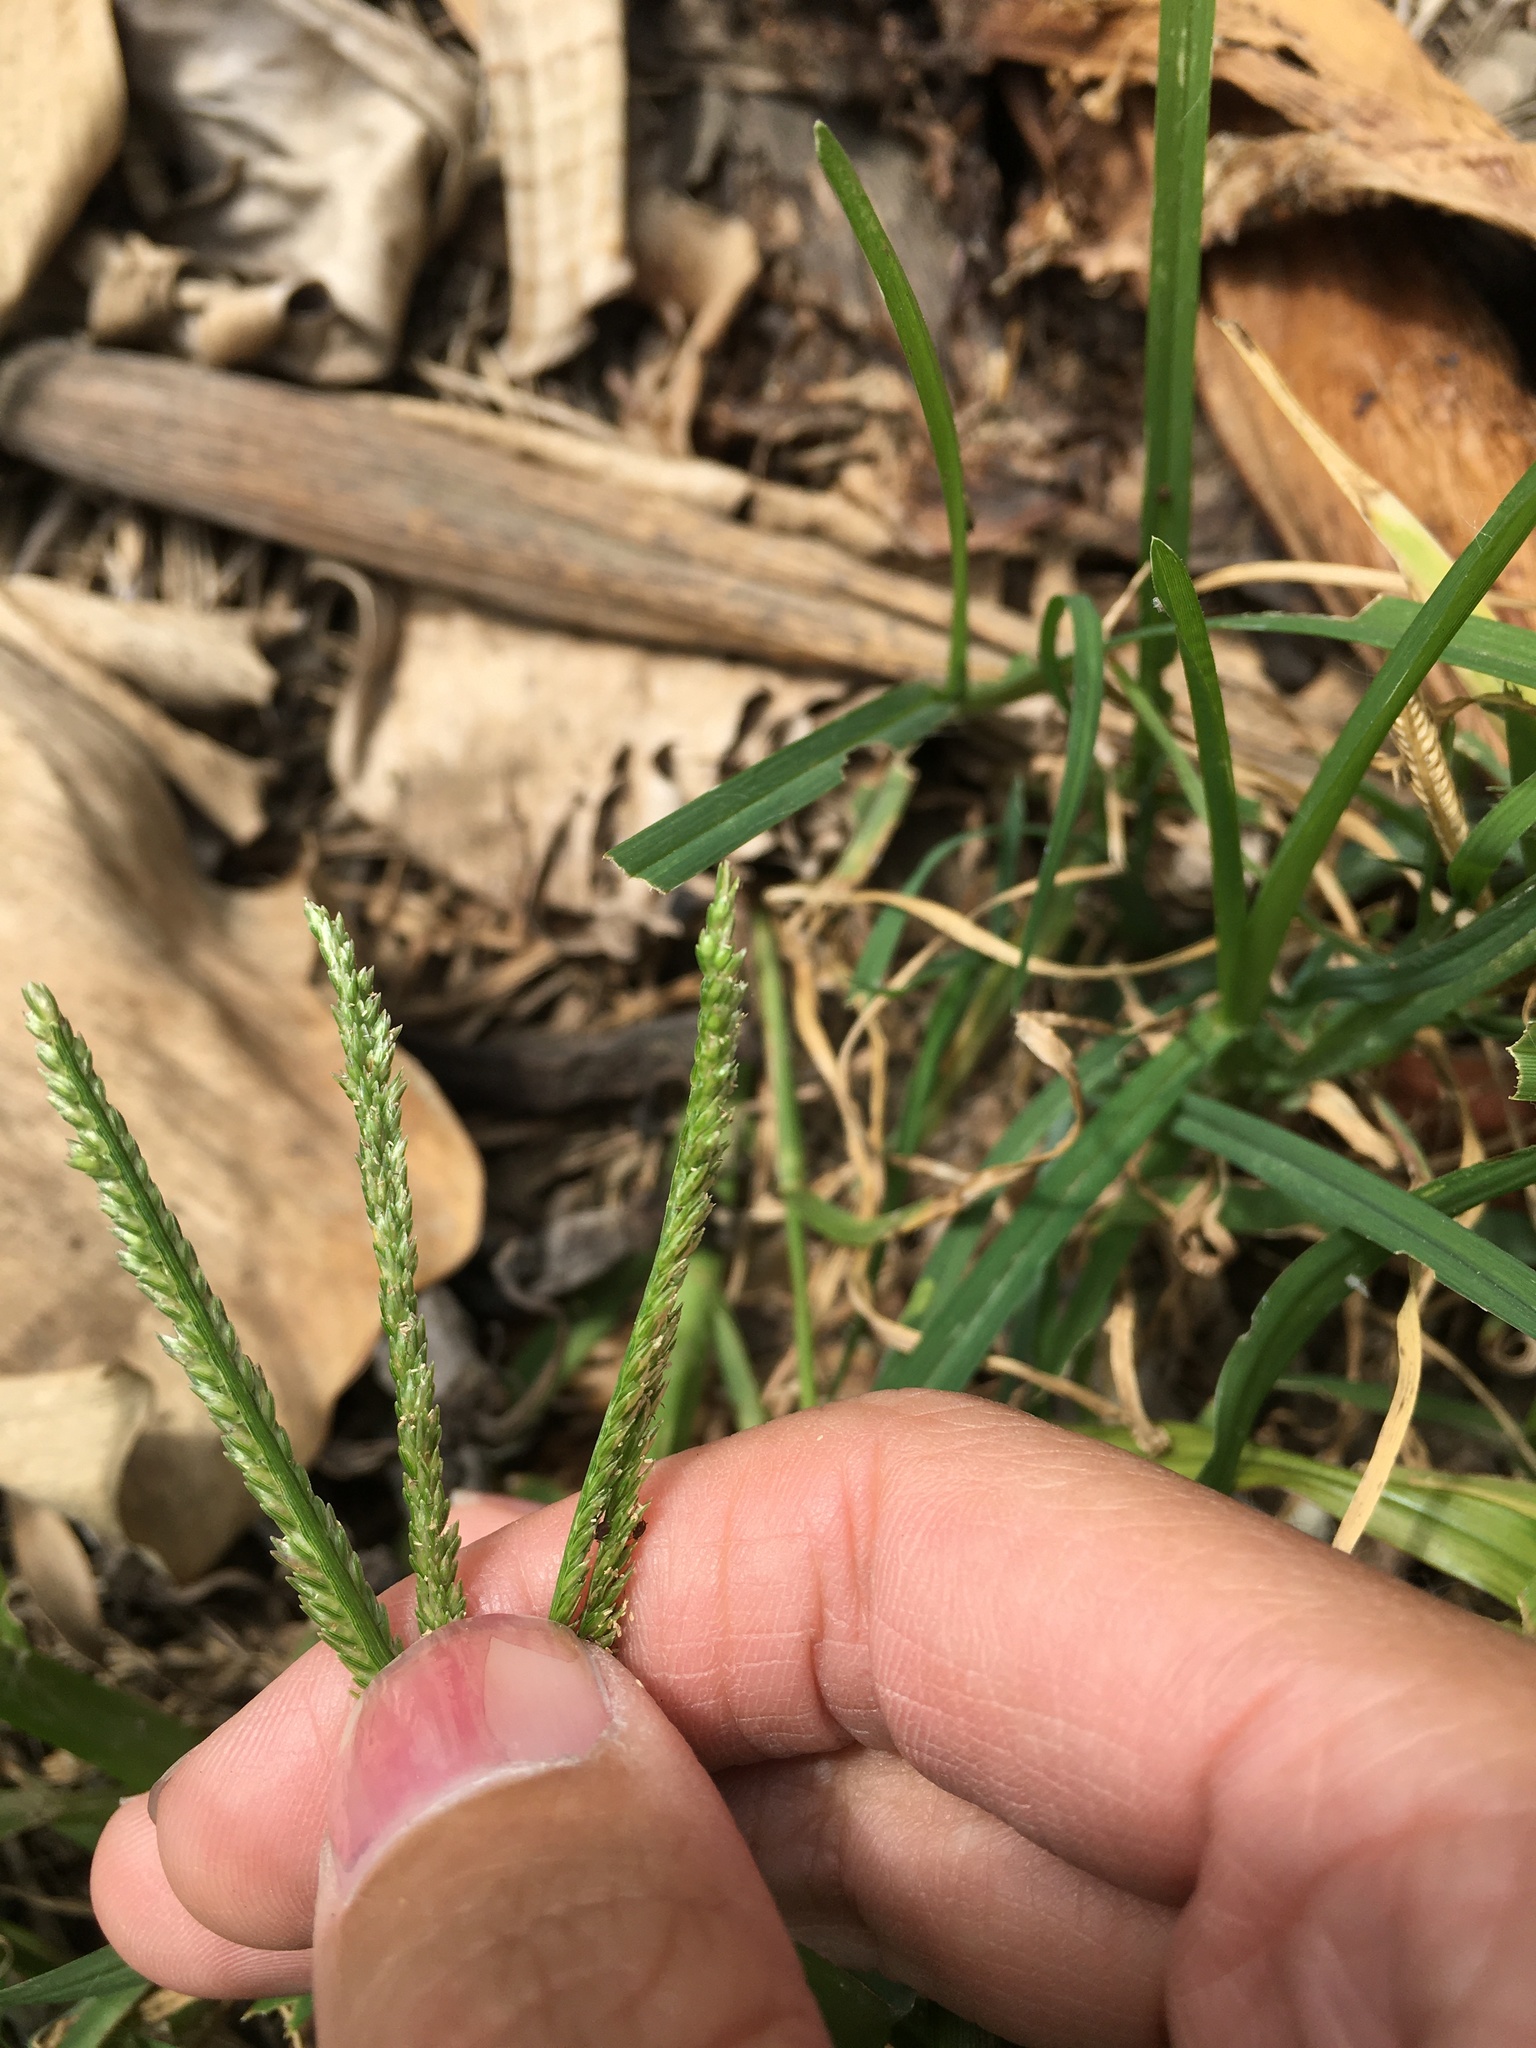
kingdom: Plantae
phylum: Tracheophyta
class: Liliopsida
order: Poales
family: Poaceae
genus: Eleusine
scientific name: Eleusine indica
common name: Yard-grass
